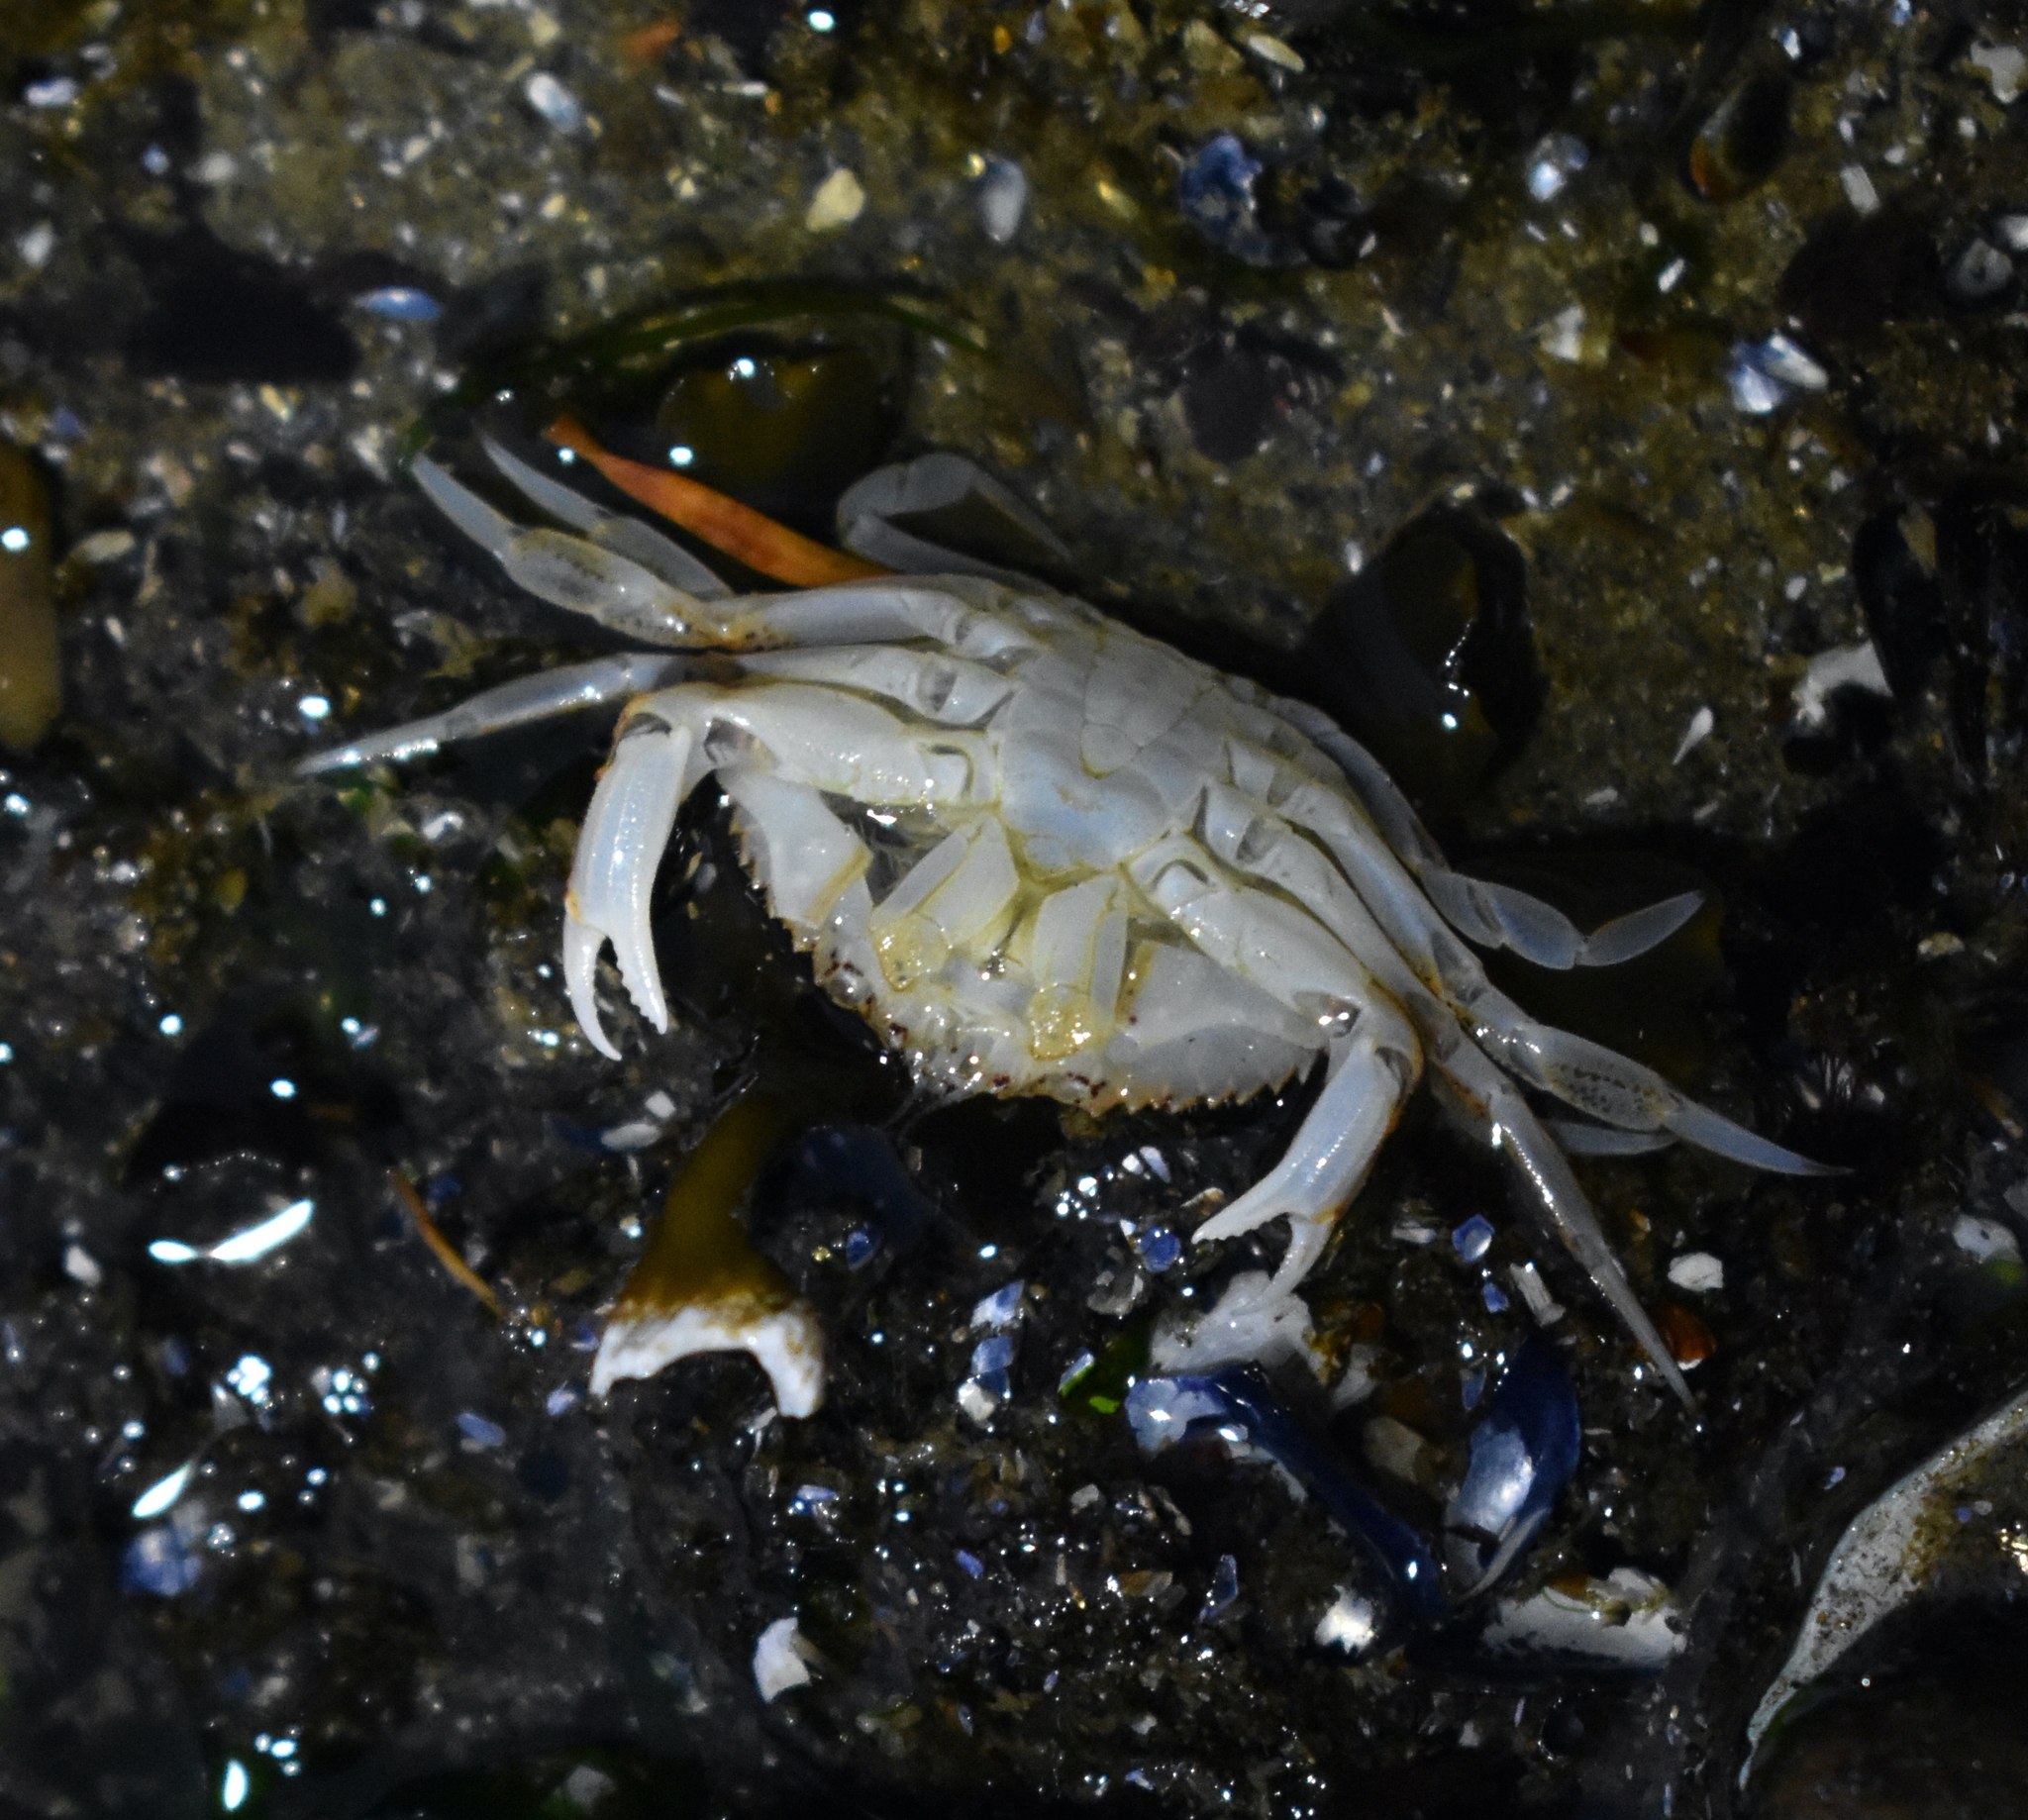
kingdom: Animalia
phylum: Arthropoda
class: Malacostraca
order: Decapoda
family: Cancridae
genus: Metacarcinus
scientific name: Metacarcinus magister
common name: Californian crab
